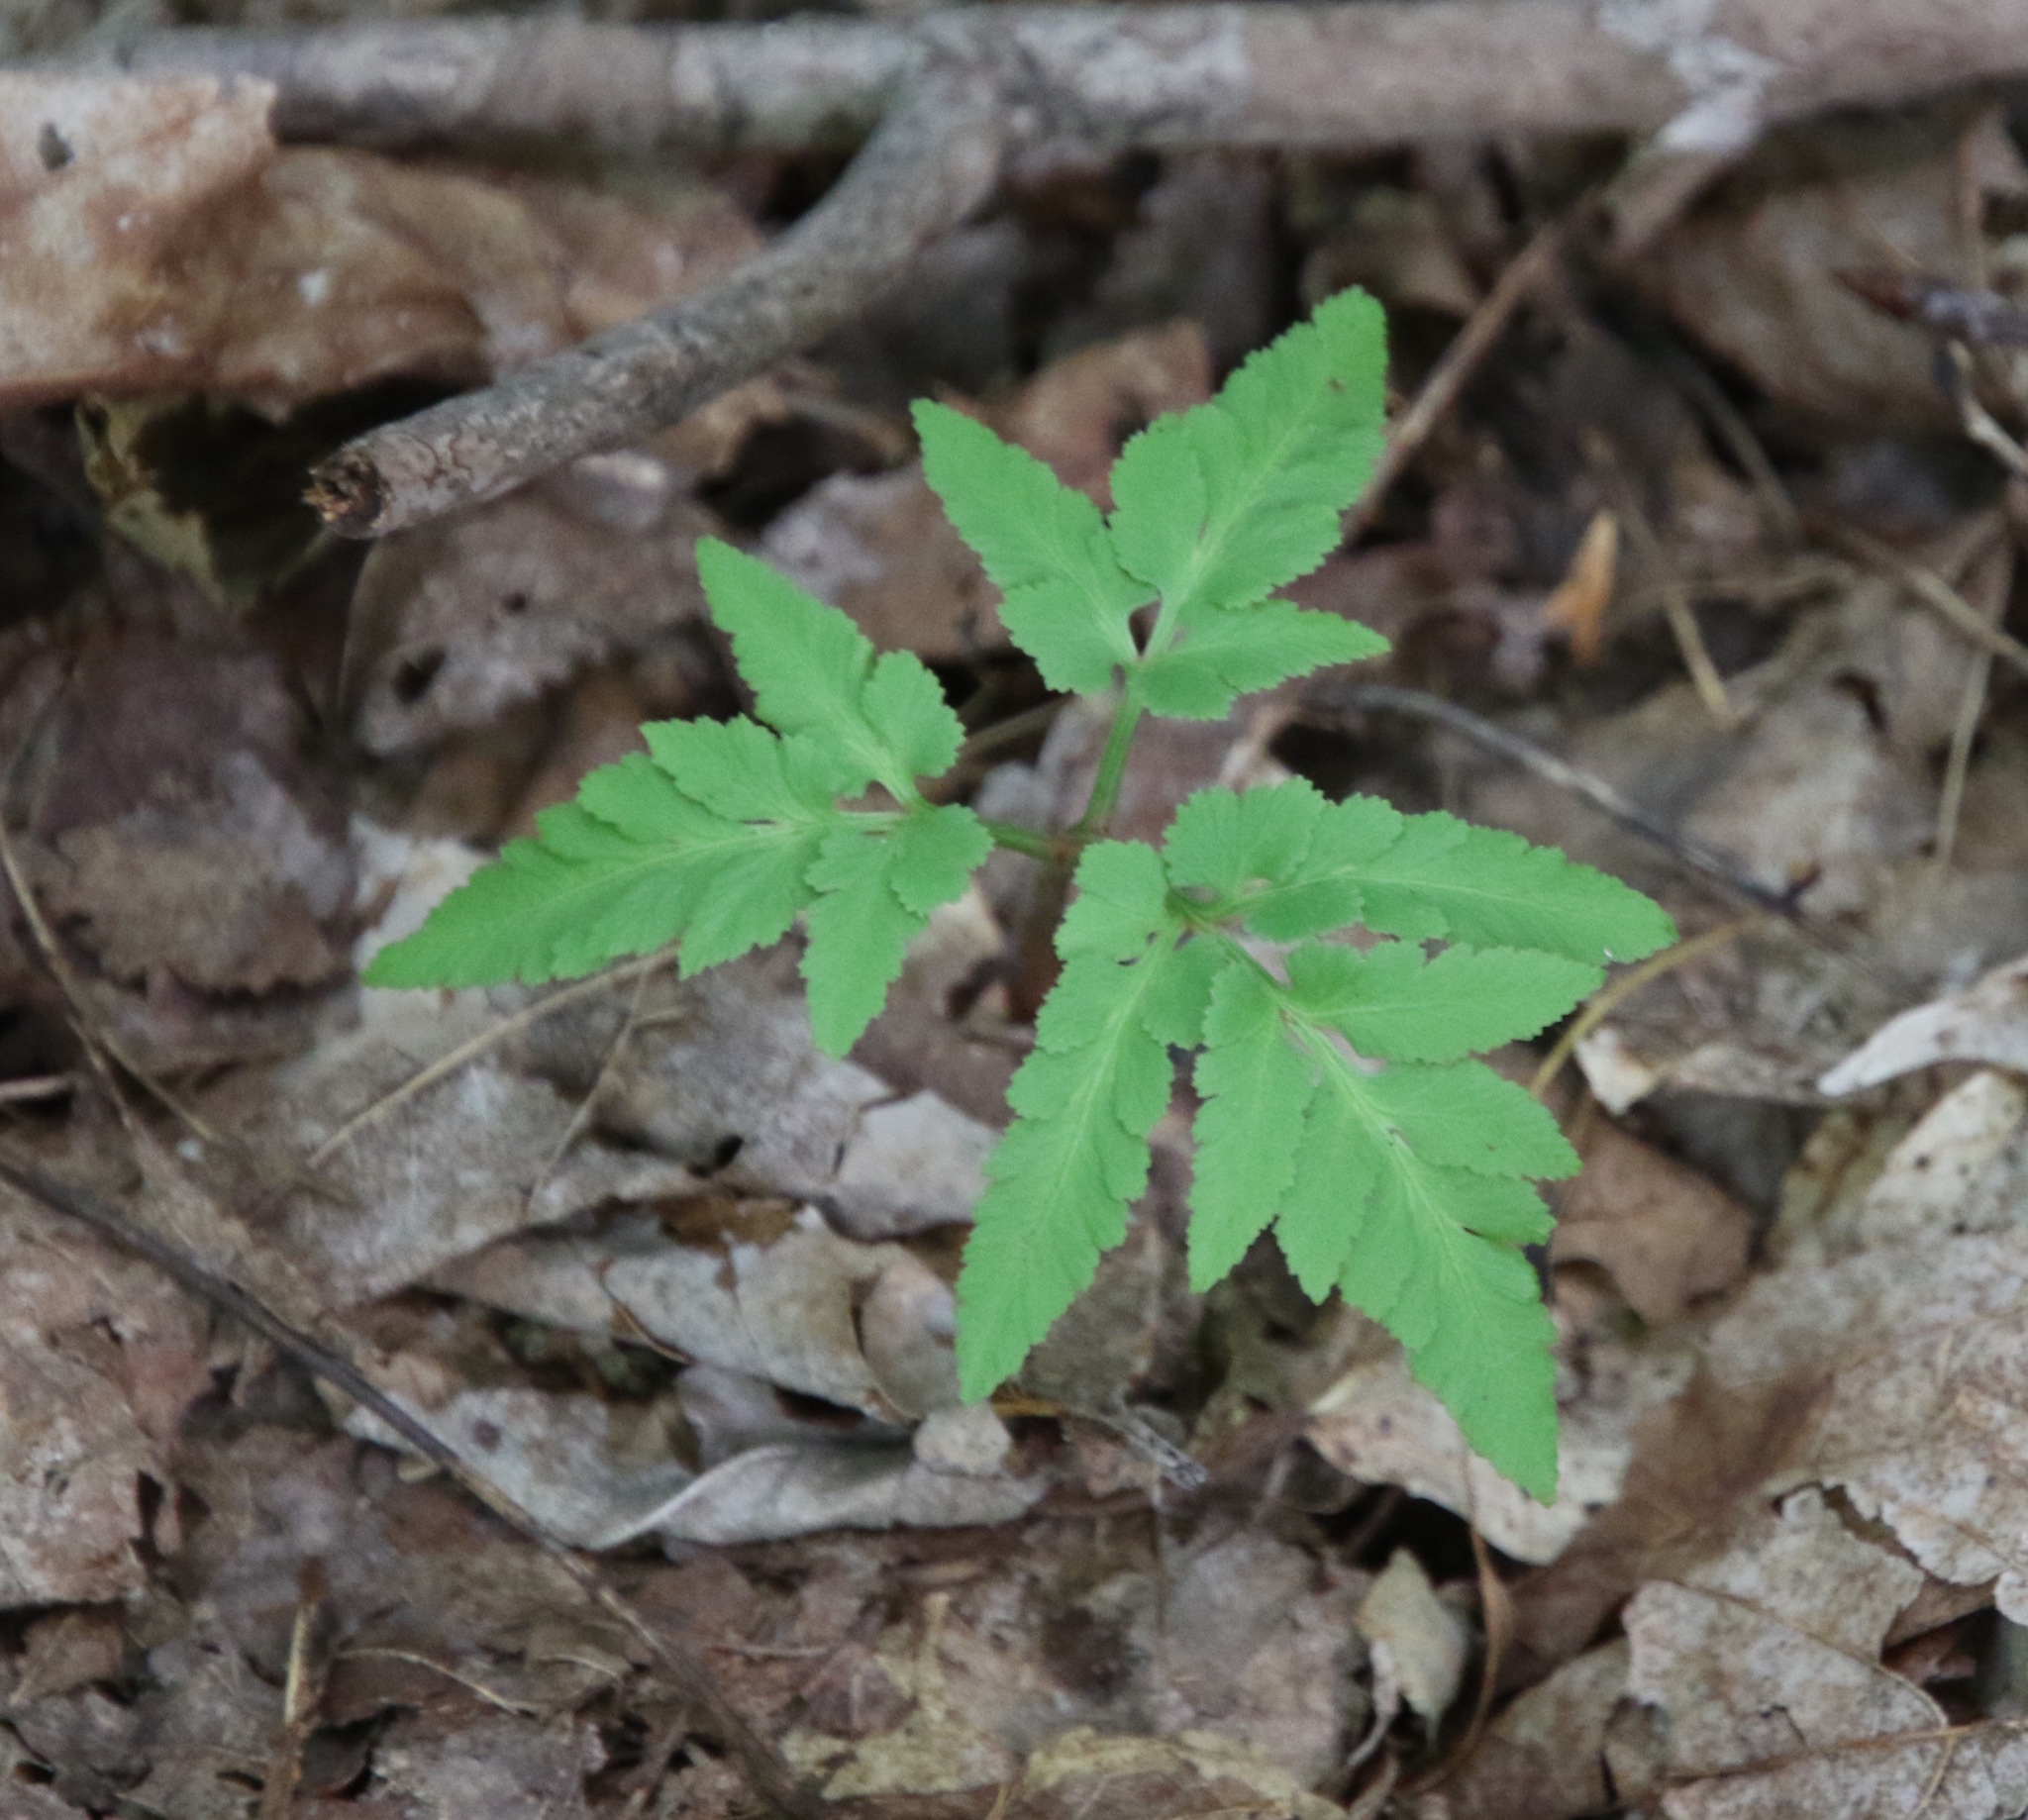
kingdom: Plantae
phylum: Tracheophyta
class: Polypodiopsida
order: Ophioglossales
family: Ophioglossaceae
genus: Sceptridium
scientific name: Sceptridium dissectum
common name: Cut-leaved grapefern
